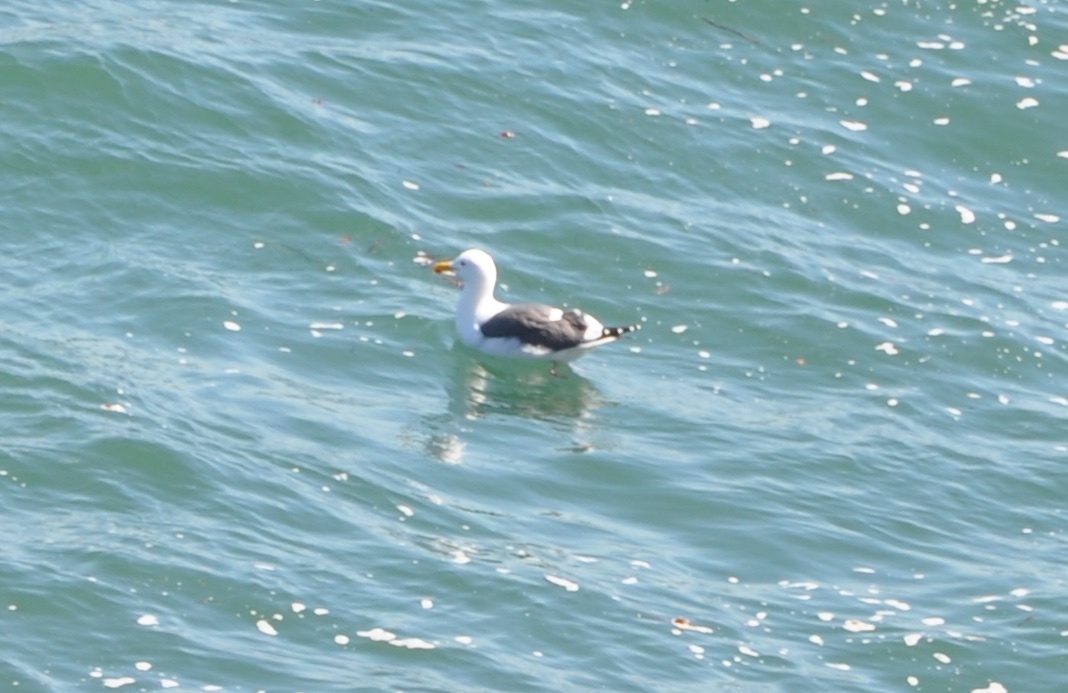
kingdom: Animalia
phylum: Chordata
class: Aves
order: Charadriiformes
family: Laridae
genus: Larus
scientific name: Larus occidentalis
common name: Western gull
